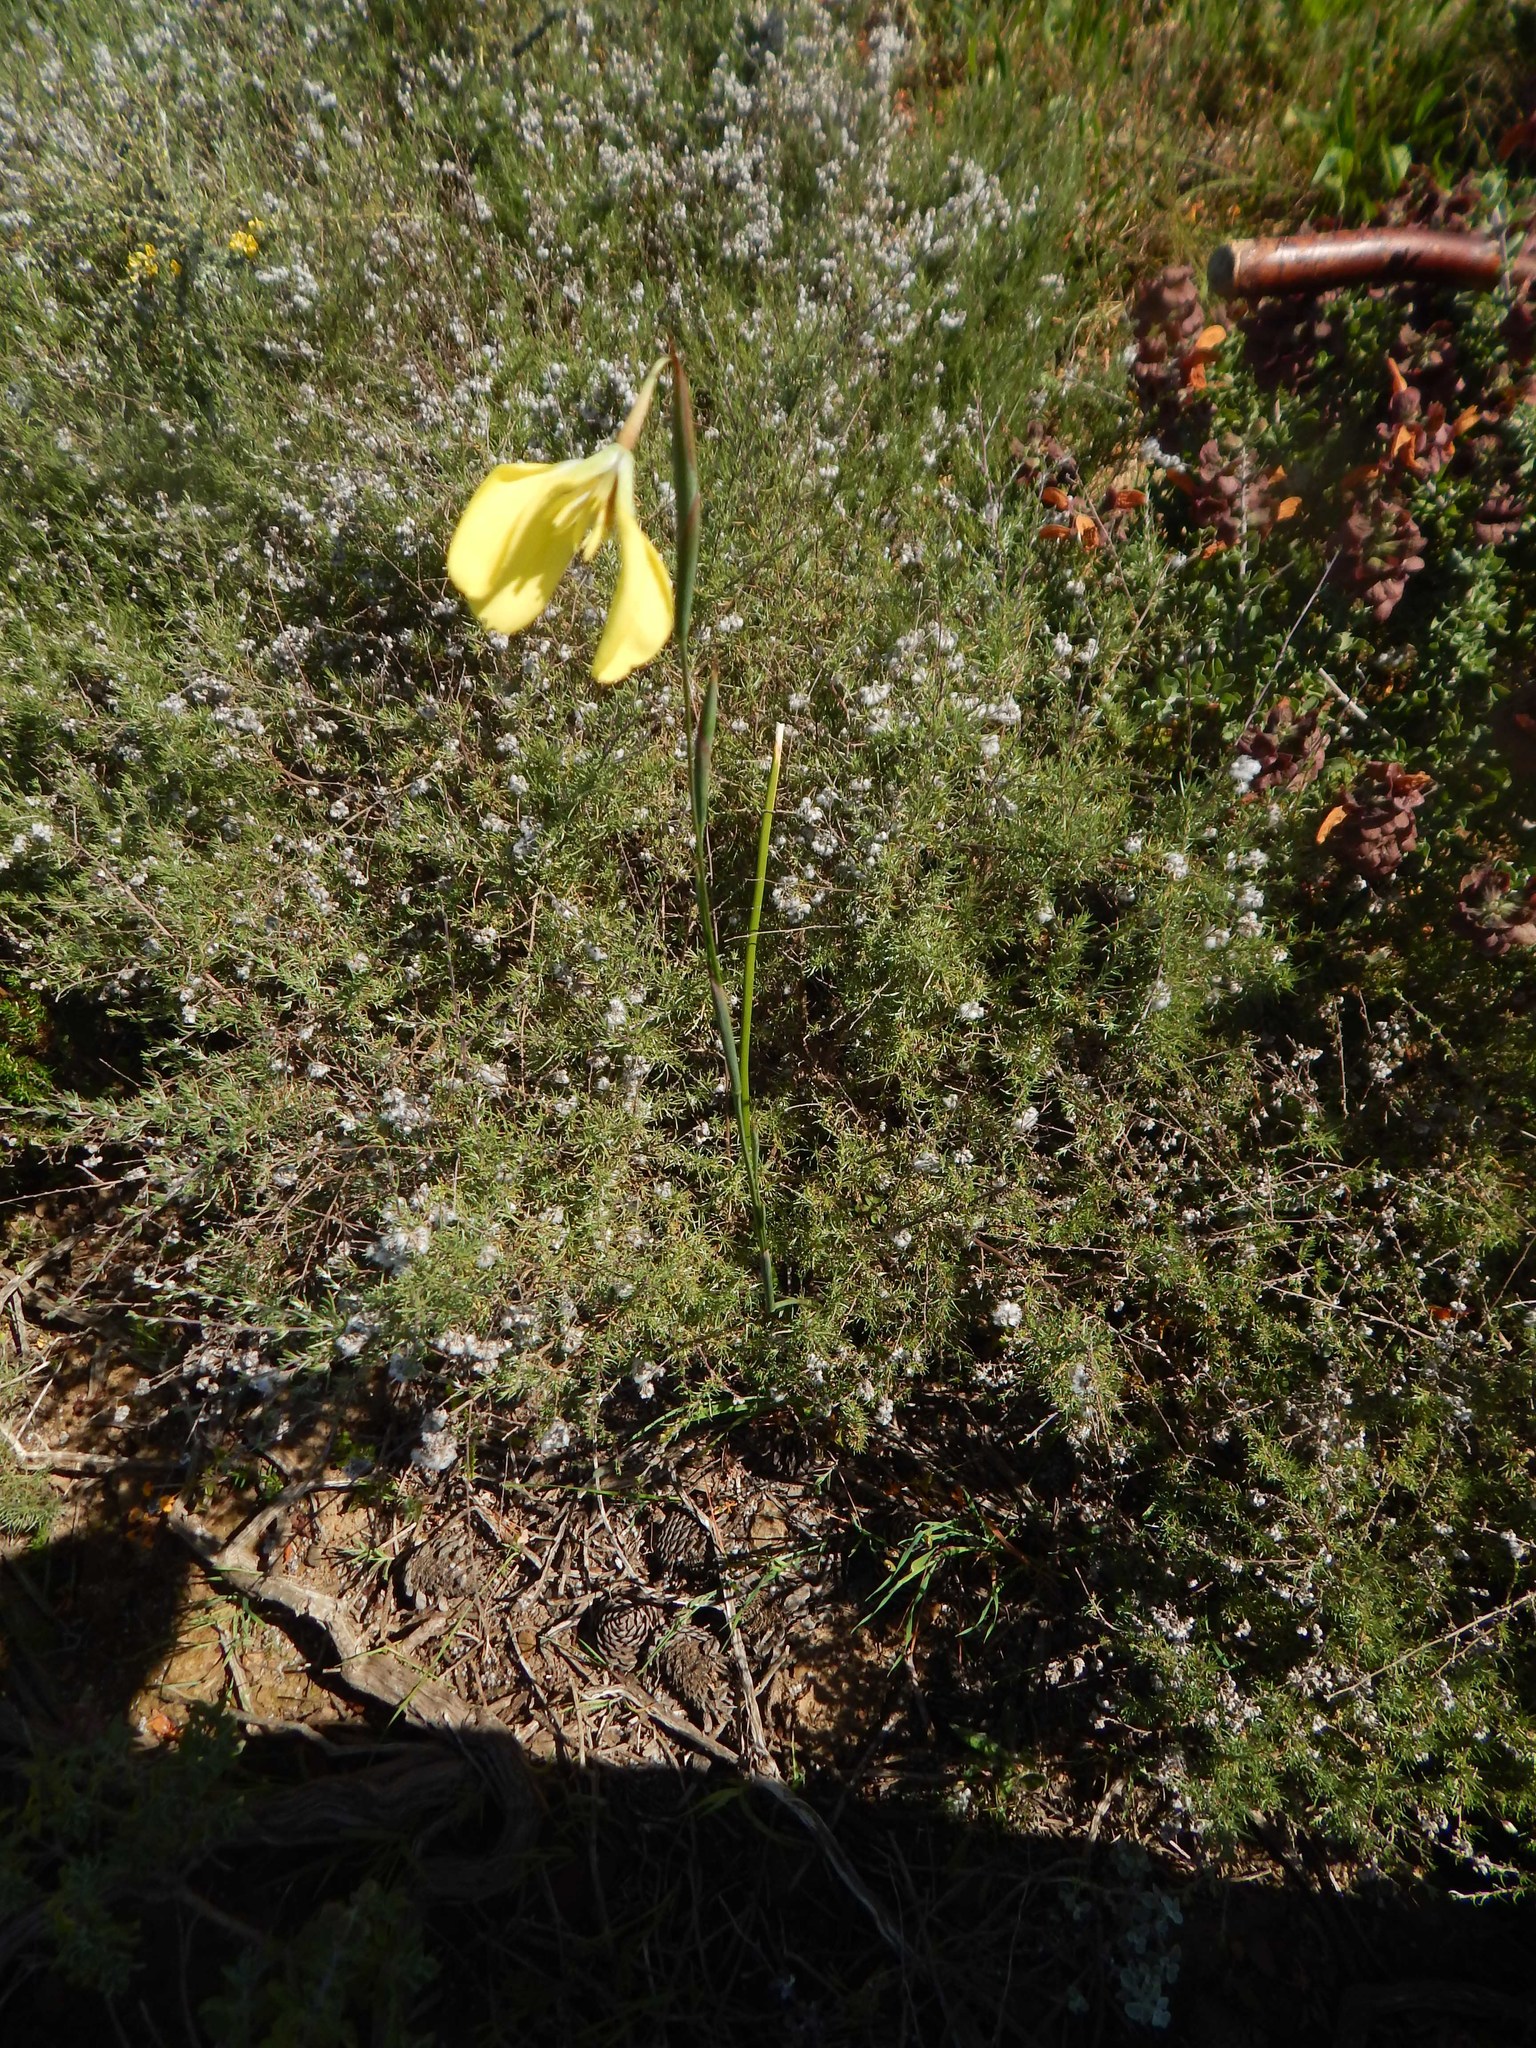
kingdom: Plantae
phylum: Tracheophyta
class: Liliopsida
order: Asparagales
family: Iridaceae
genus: Moraea
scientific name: Moraea bellendenii
